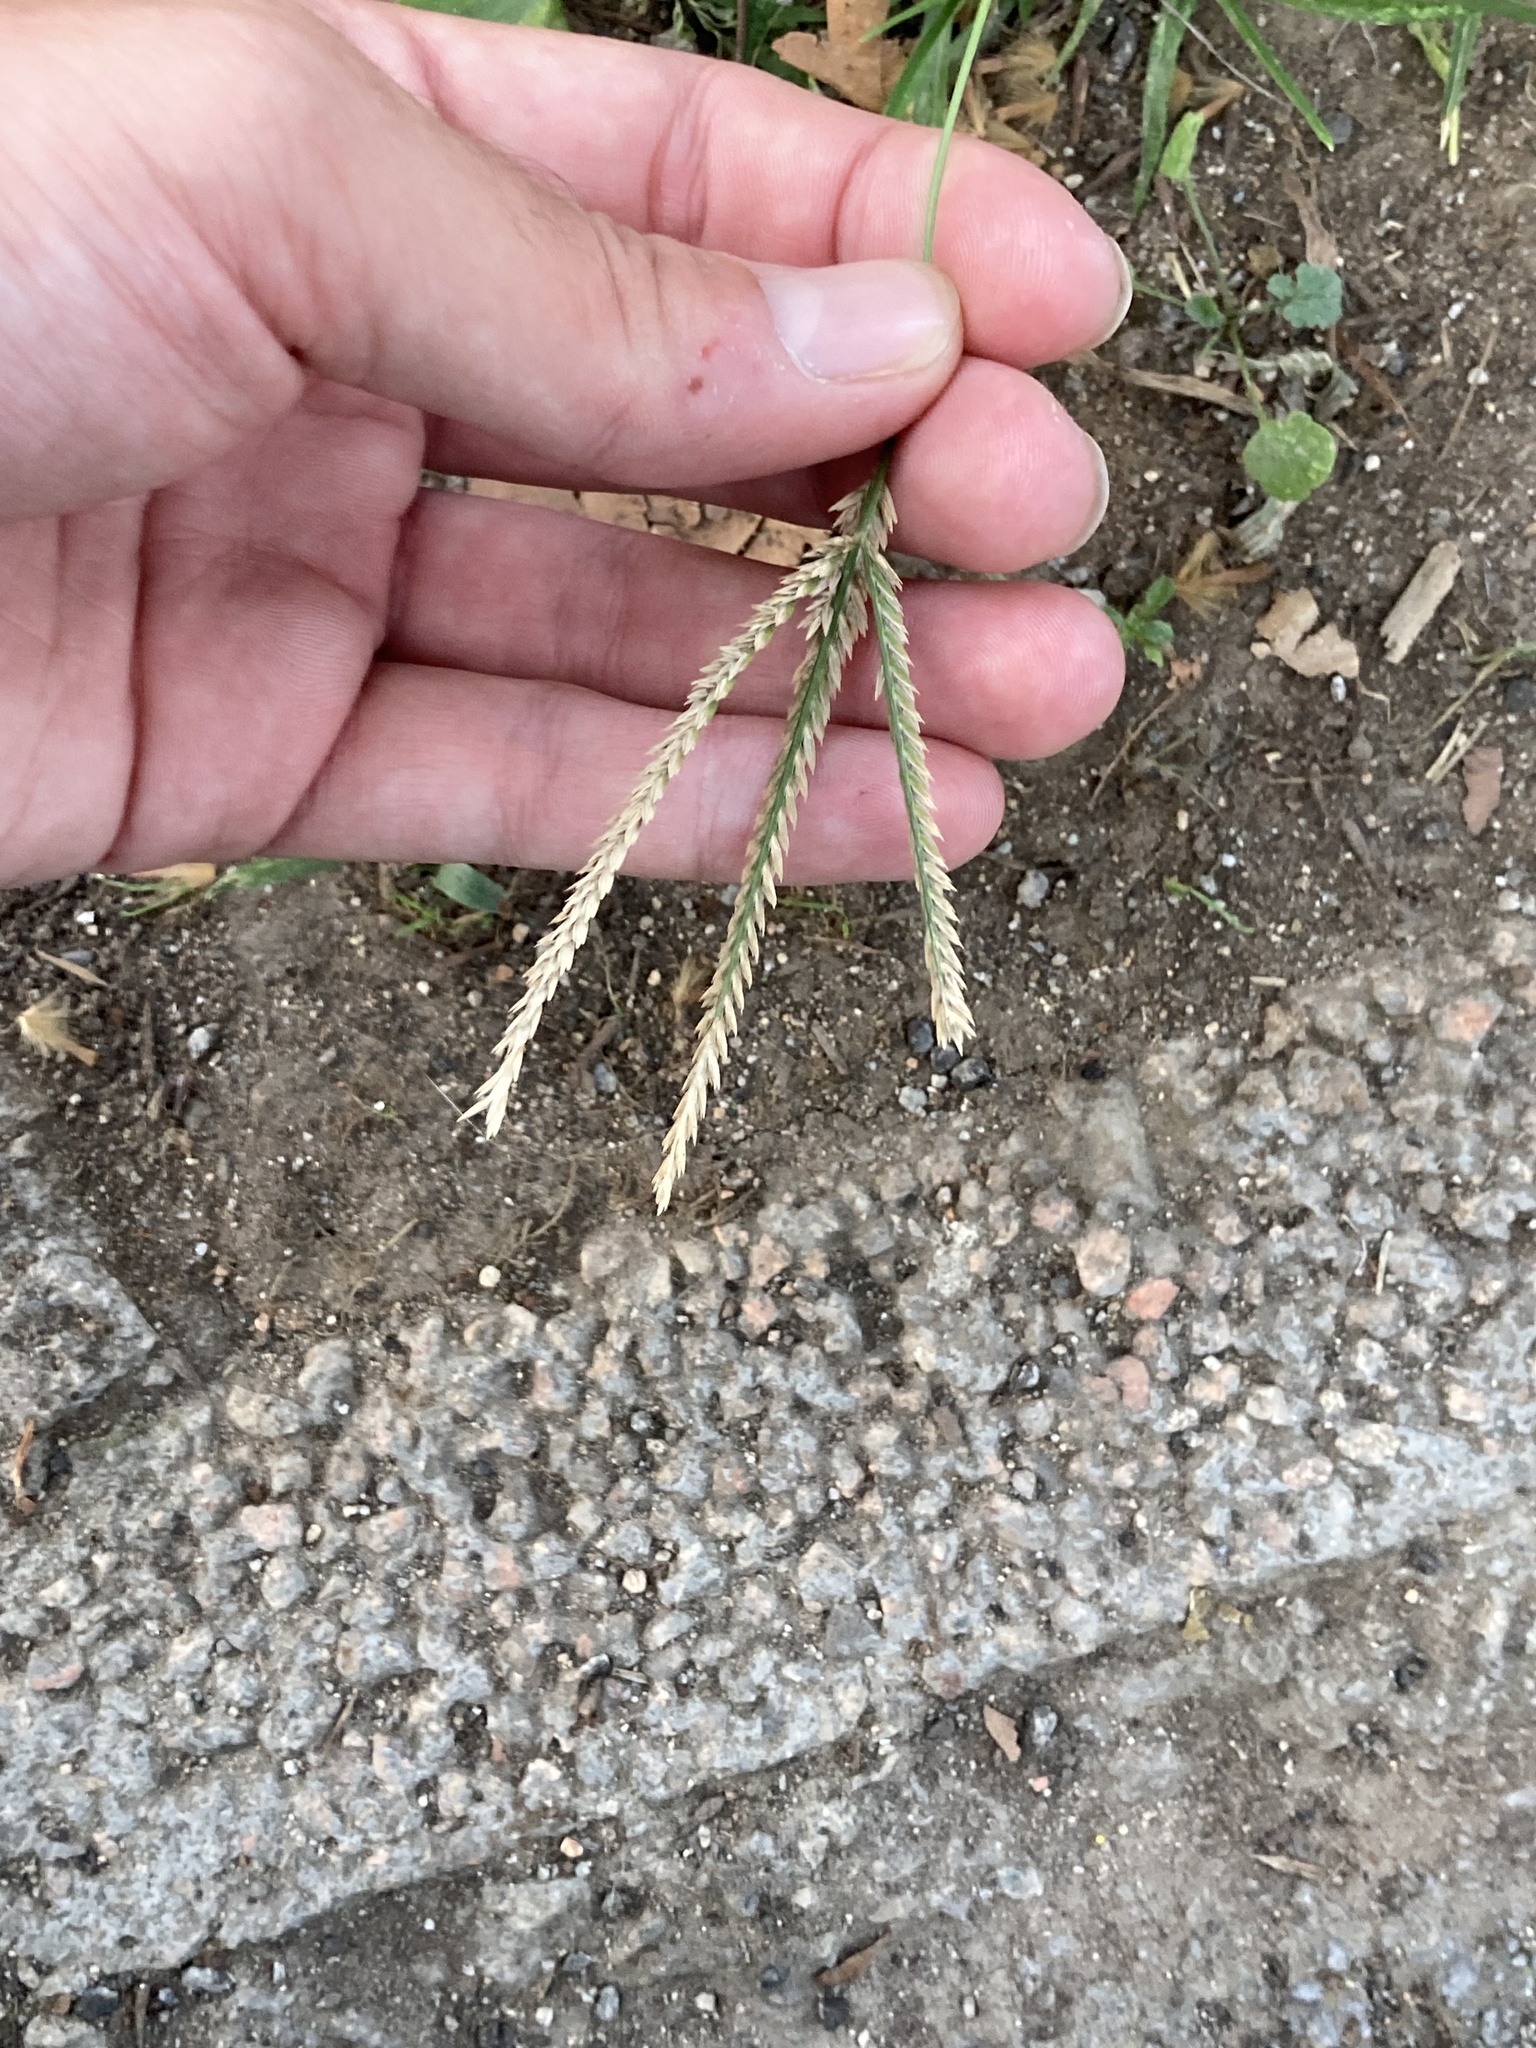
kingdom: Plantae
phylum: Tracheophyta
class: Liliopsida
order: Poales
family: Poaceae
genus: Eleusine
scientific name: Eleusine indica
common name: Yard-grass
